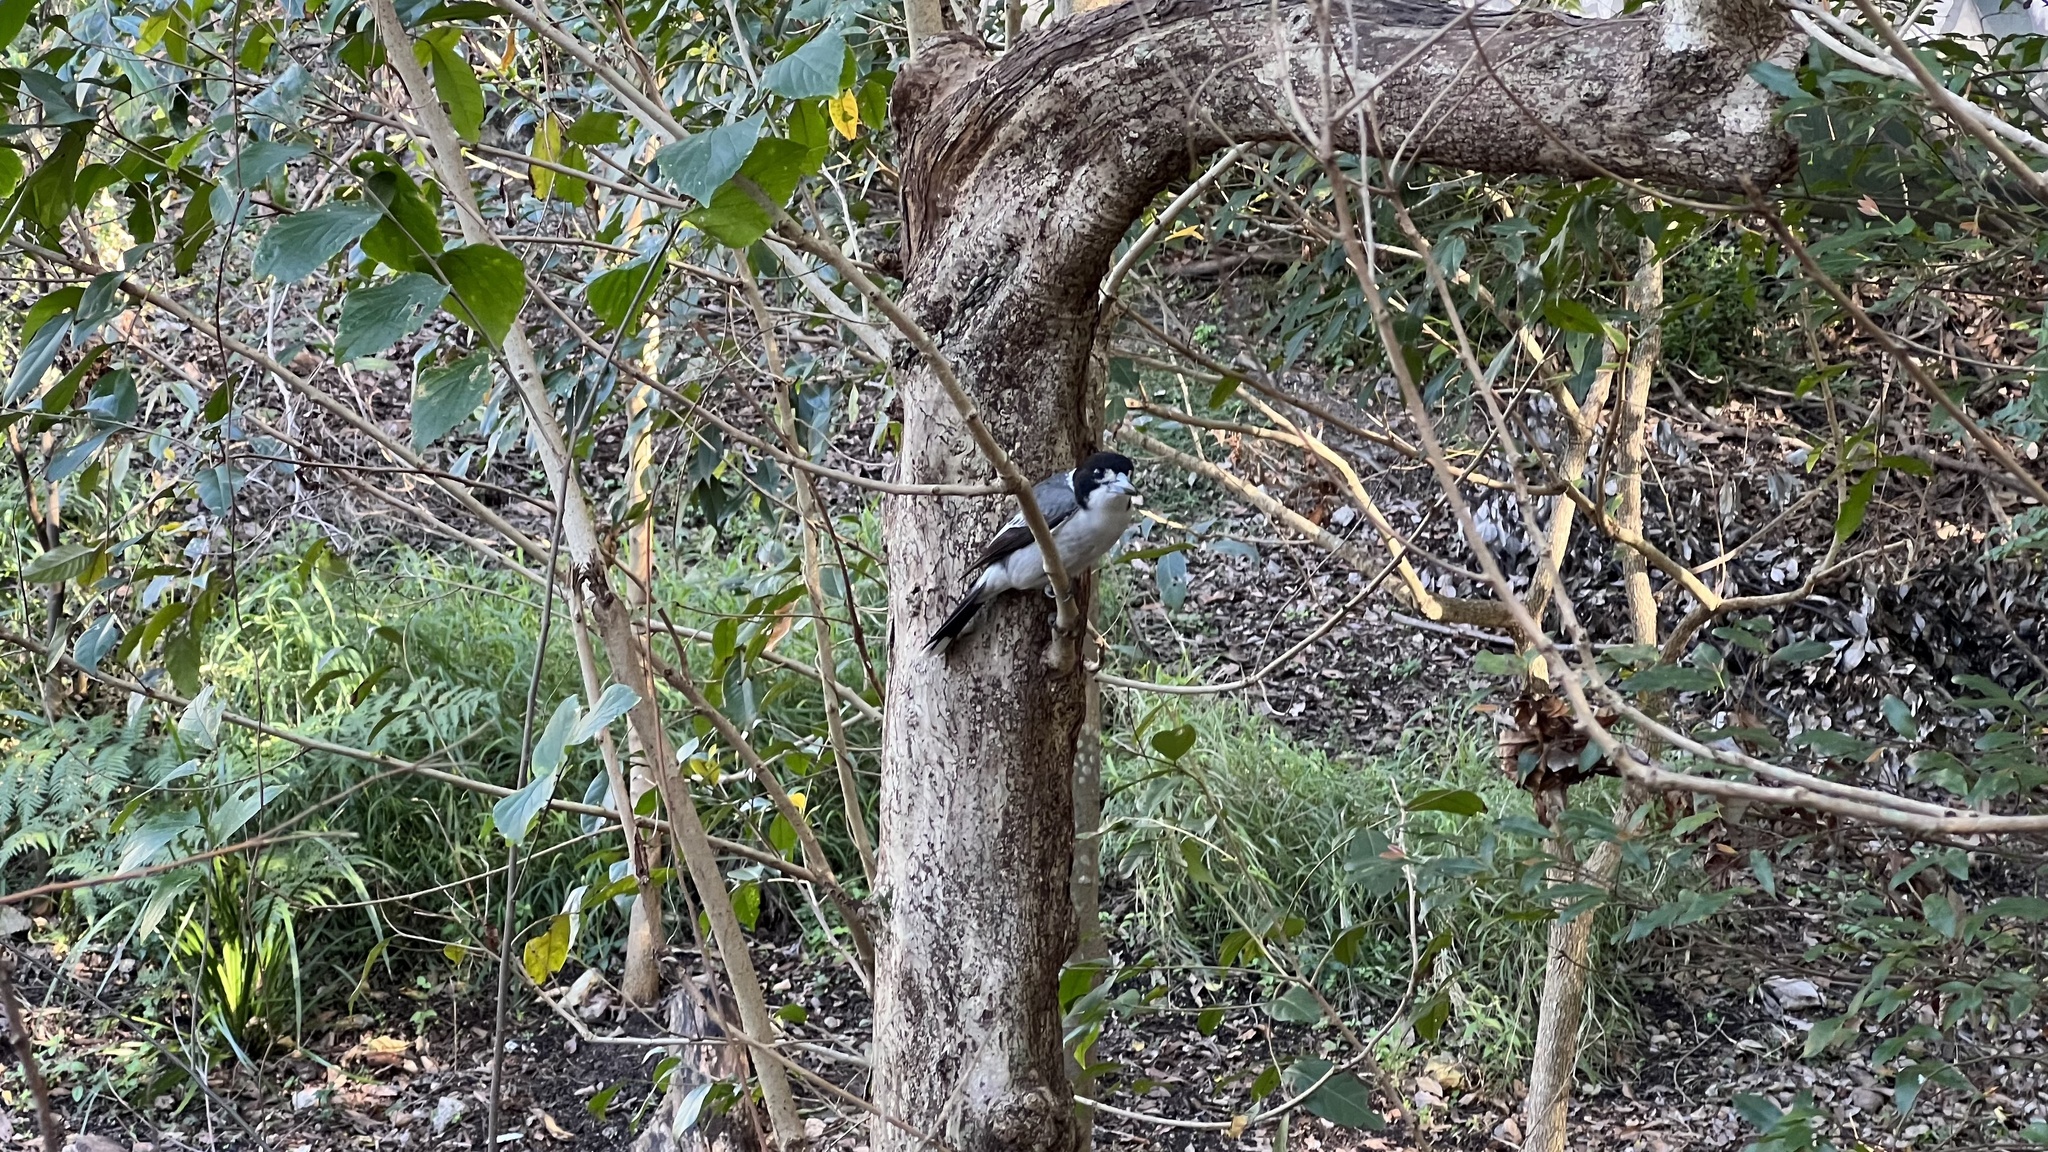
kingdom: Animalia
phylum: Chordata
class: Aves
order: Passeriformes
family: Cracticidae
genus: Cracticus
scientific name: Cracticus torquatus
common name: Grey butcherbird
